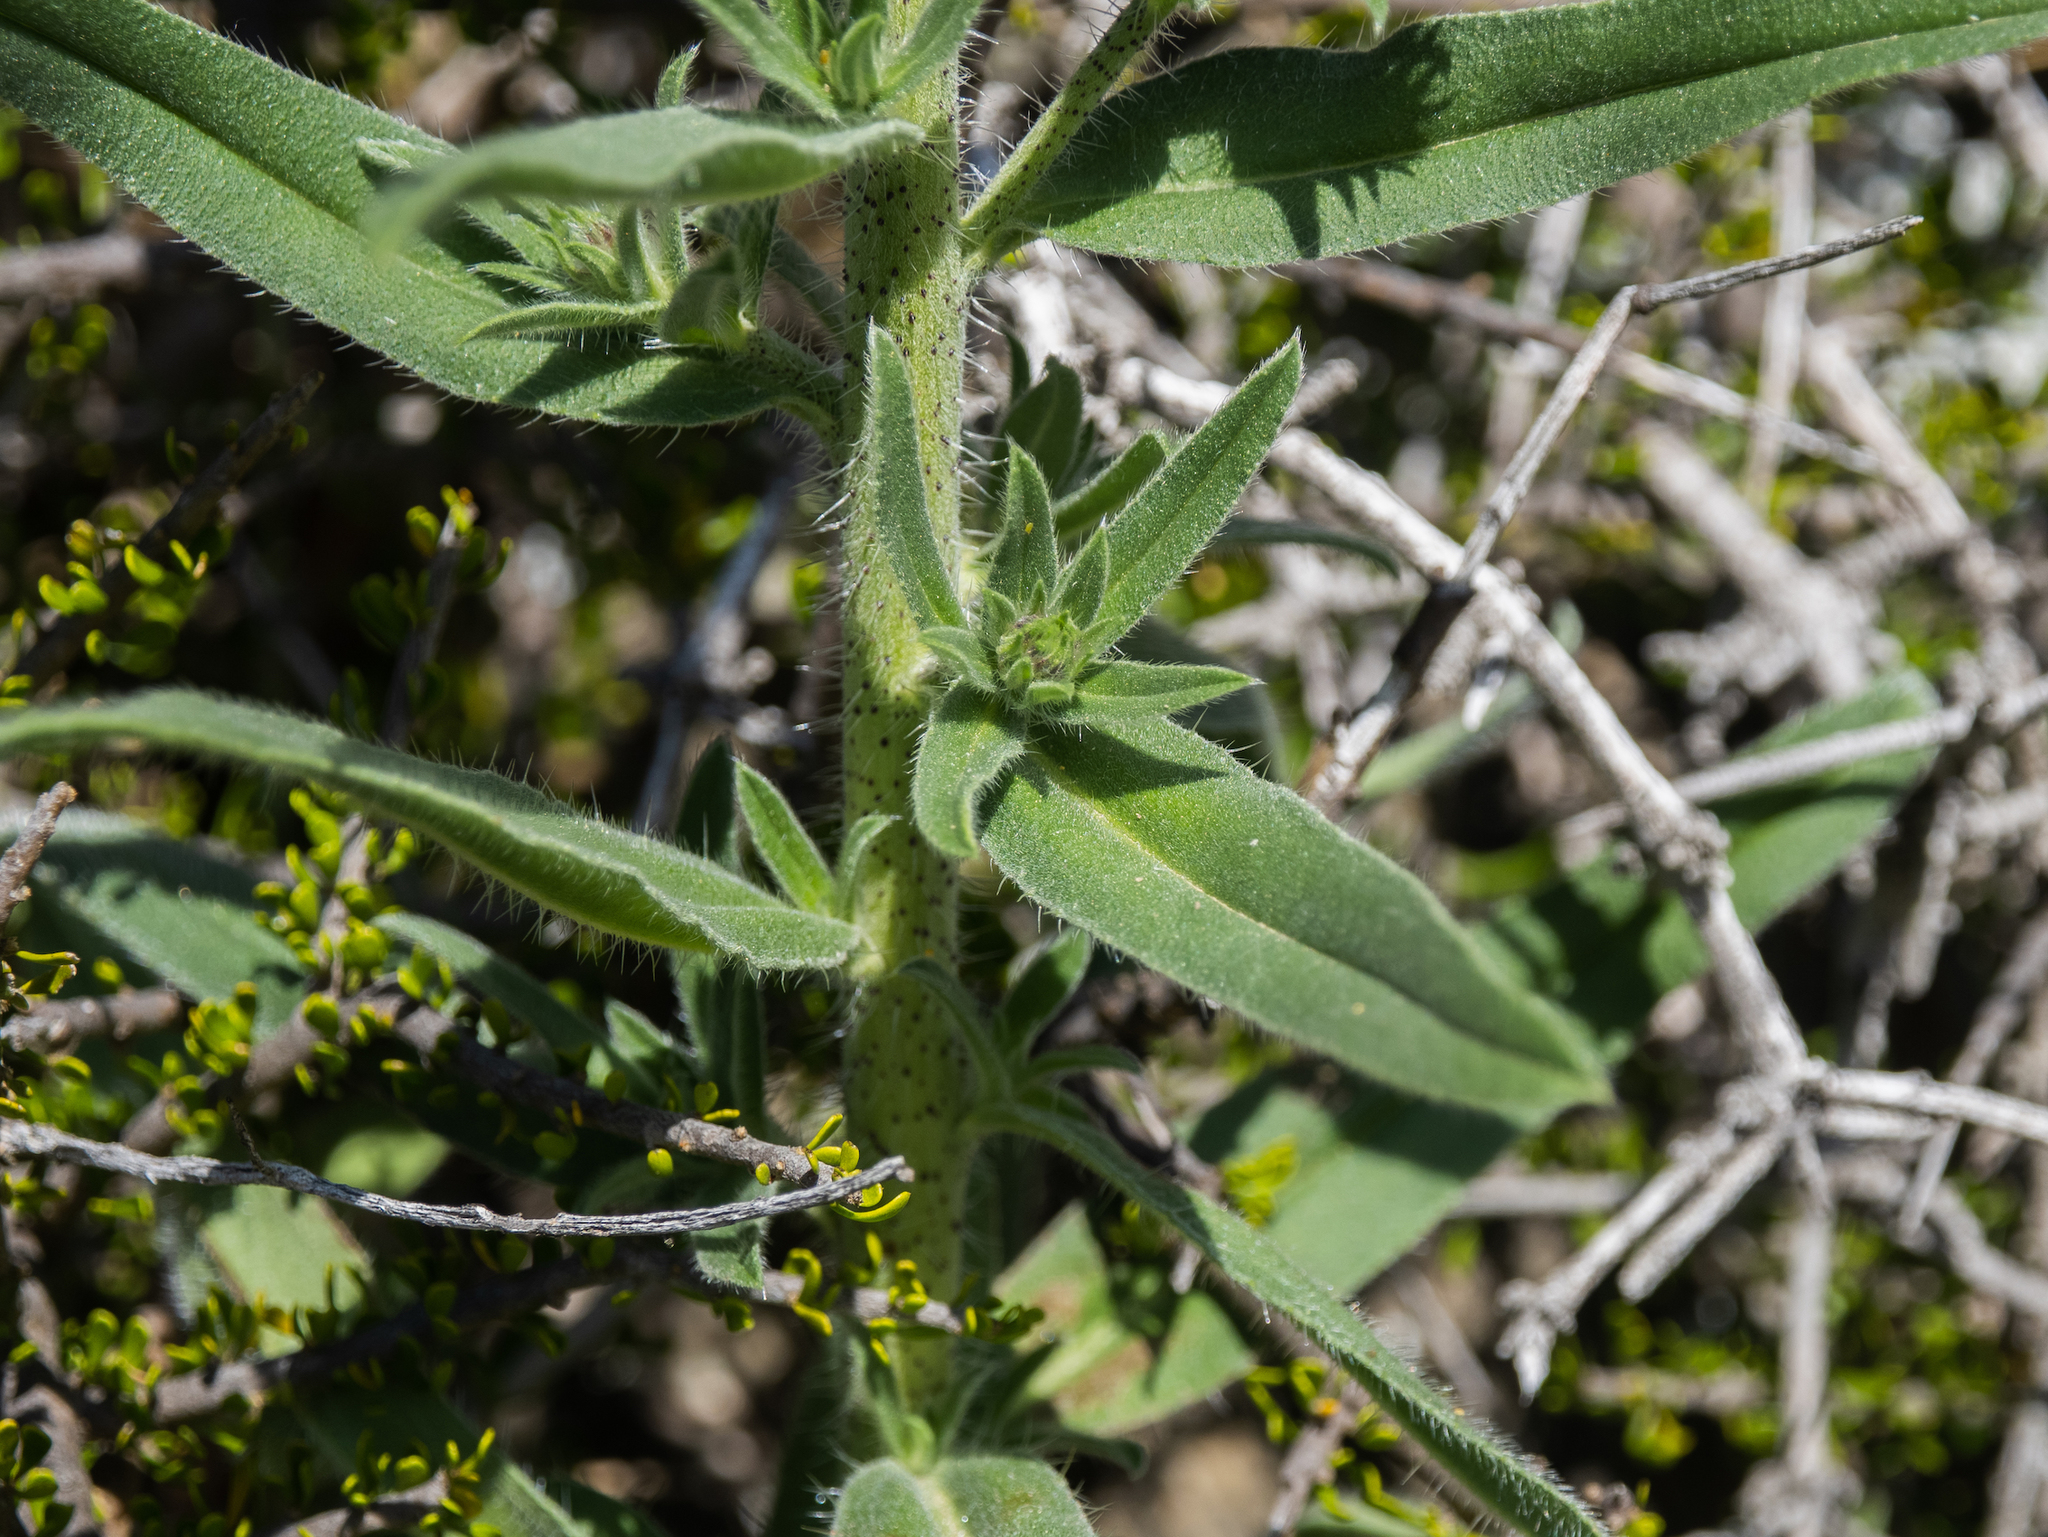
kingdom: Plantae
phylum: Tracheophyta
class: Magnoliopsida
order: Boraginales
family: Boraginaceae
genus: Echium
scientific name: Echium vulgare
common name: Common viper's bugloss
